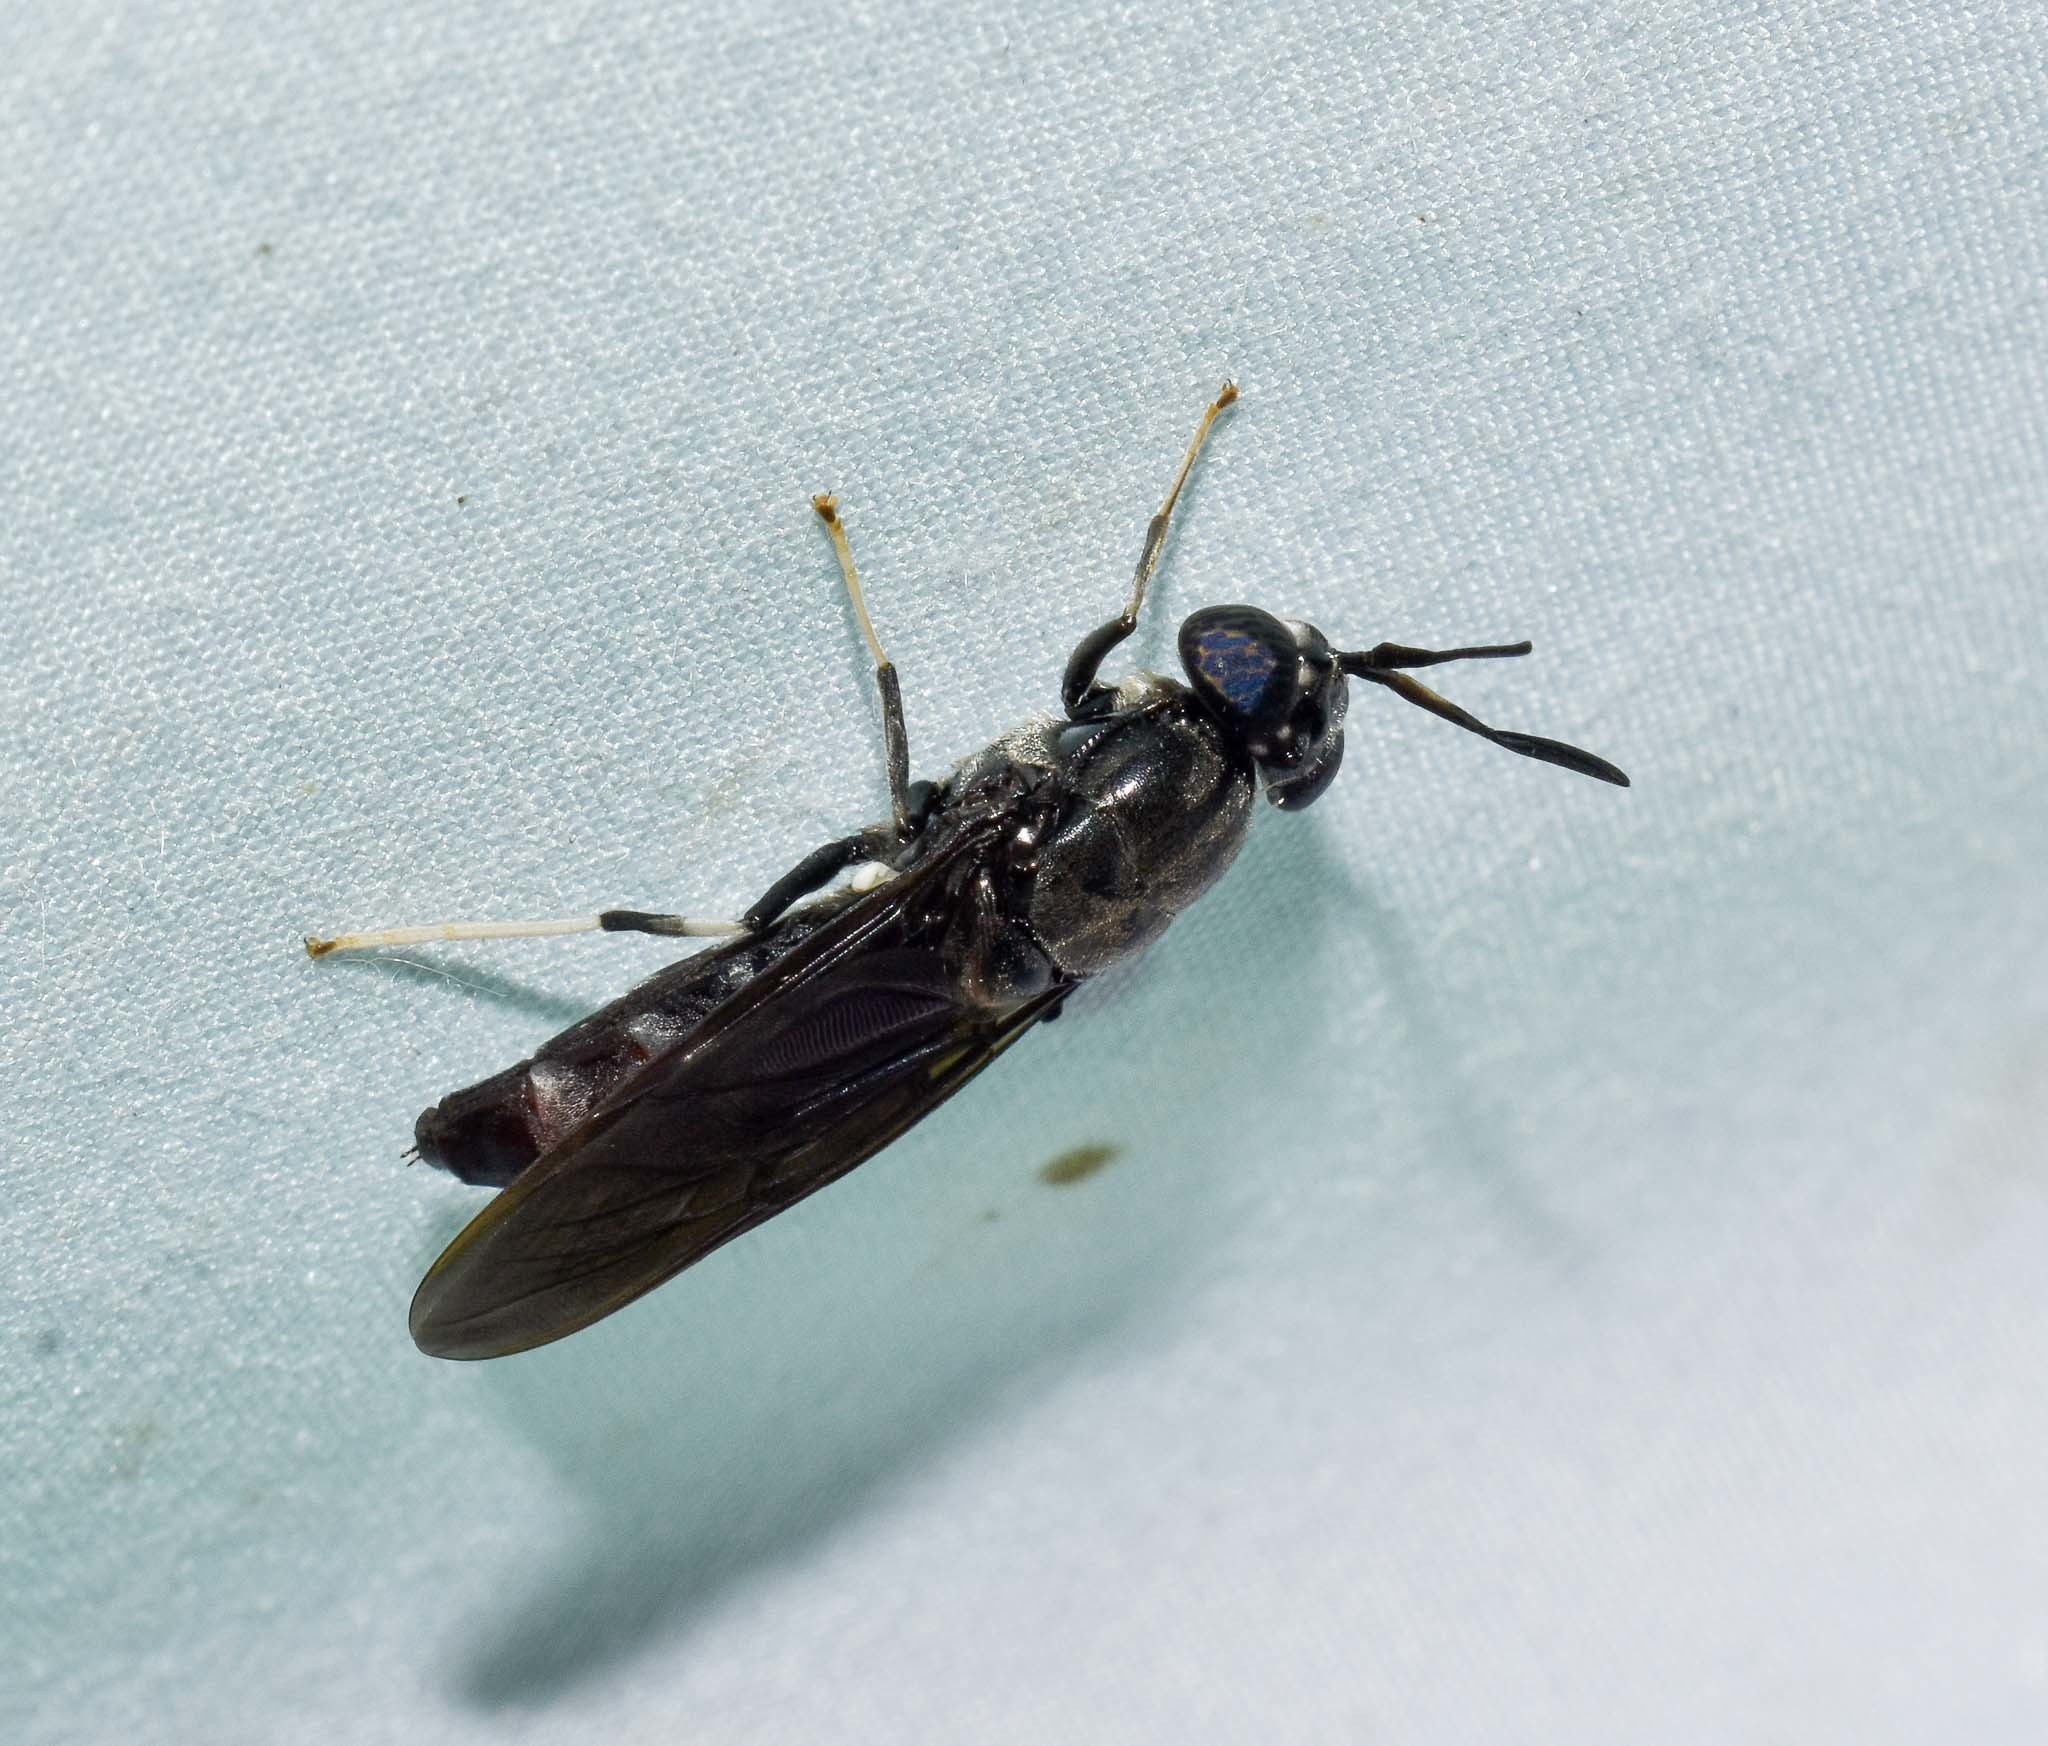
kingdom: Animalia
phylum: Arthropoda
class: Insecta
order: Diptera
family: Stratiomyidae
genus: Hermetia
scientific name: Hermetia illucens
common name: Black soldier fly
